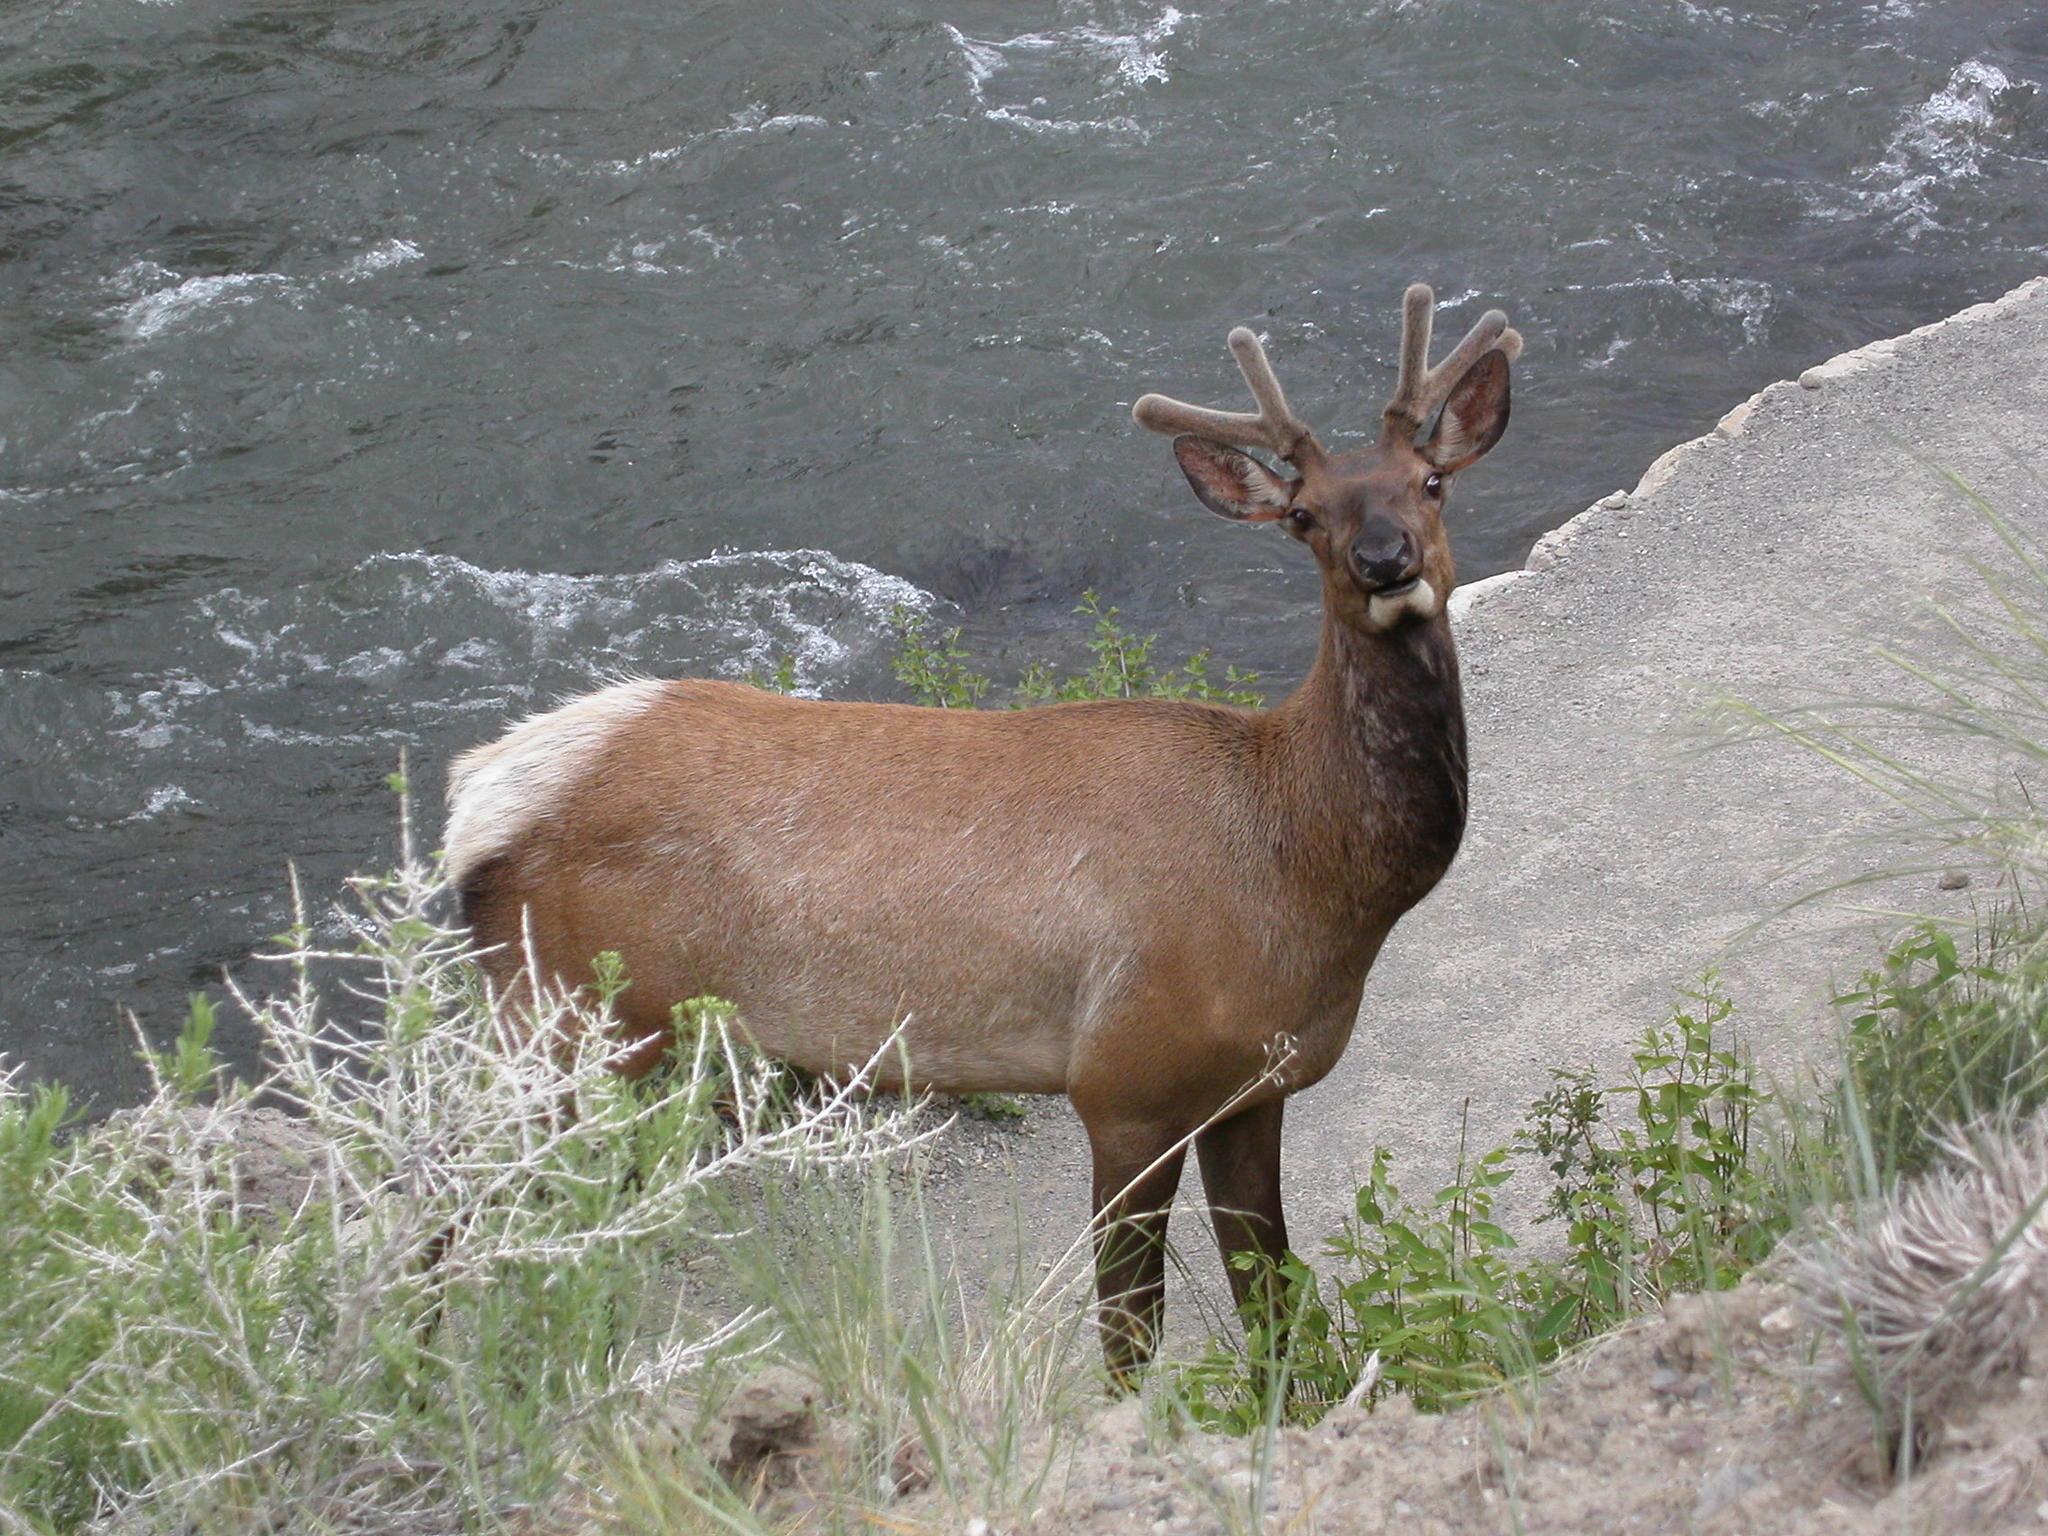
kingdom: Animalia
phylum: Chordata
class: Mammalia
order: Artiodactyla
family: Cervidae
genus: Cervus
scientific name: Cervus elaphus
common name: Red deer
